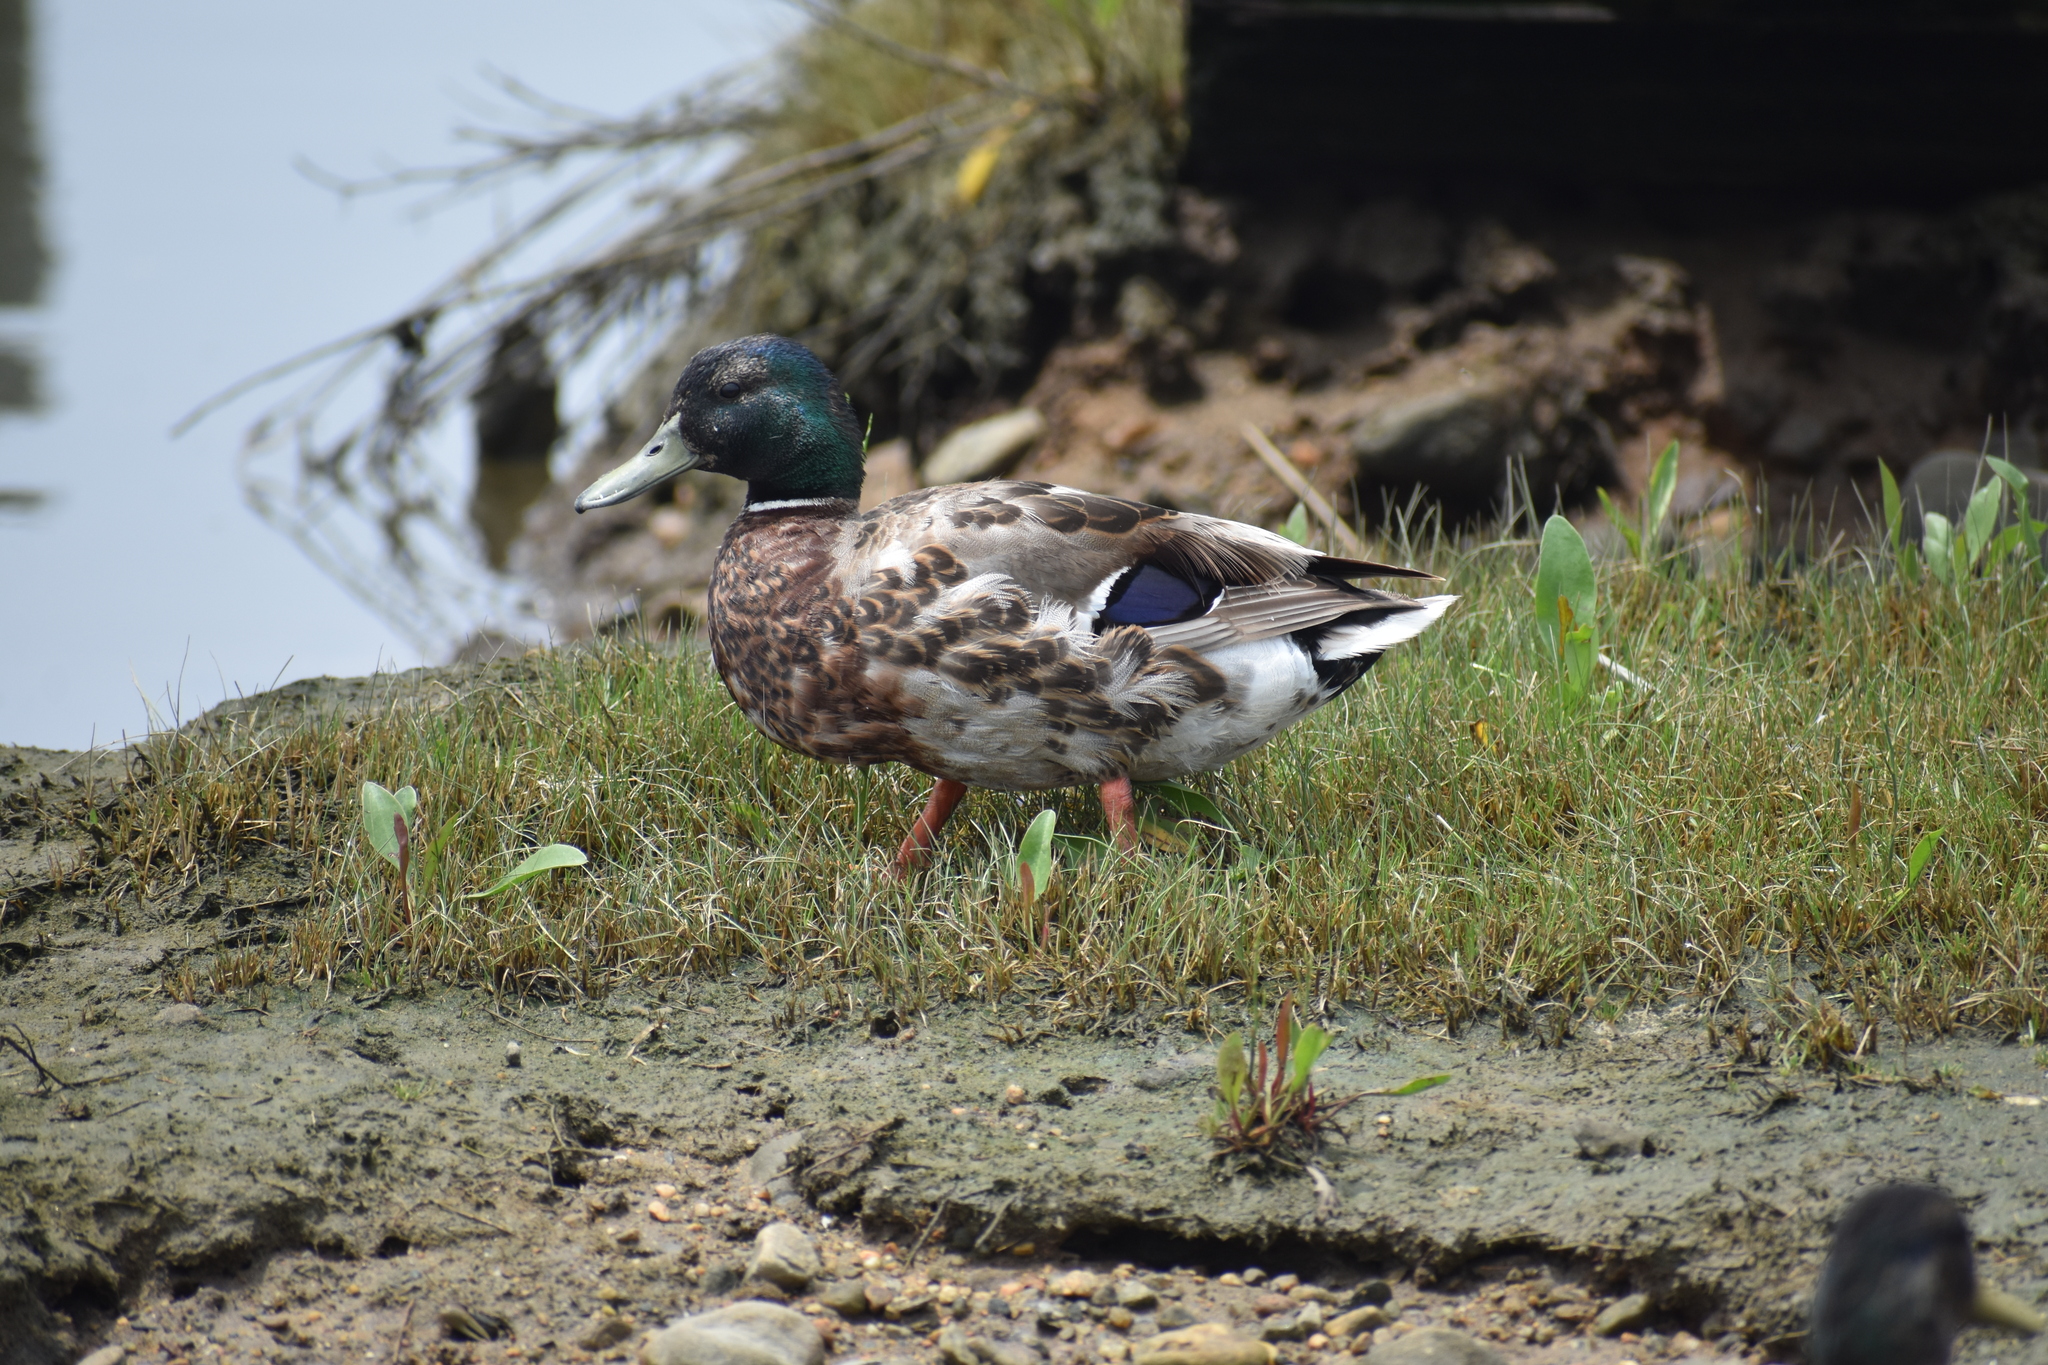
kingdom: Animalia
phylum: Chordata
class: Aves
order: Anseriformes
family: Anatidae
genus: Anas
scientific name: Anas platyrhynchos
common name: Mallard
